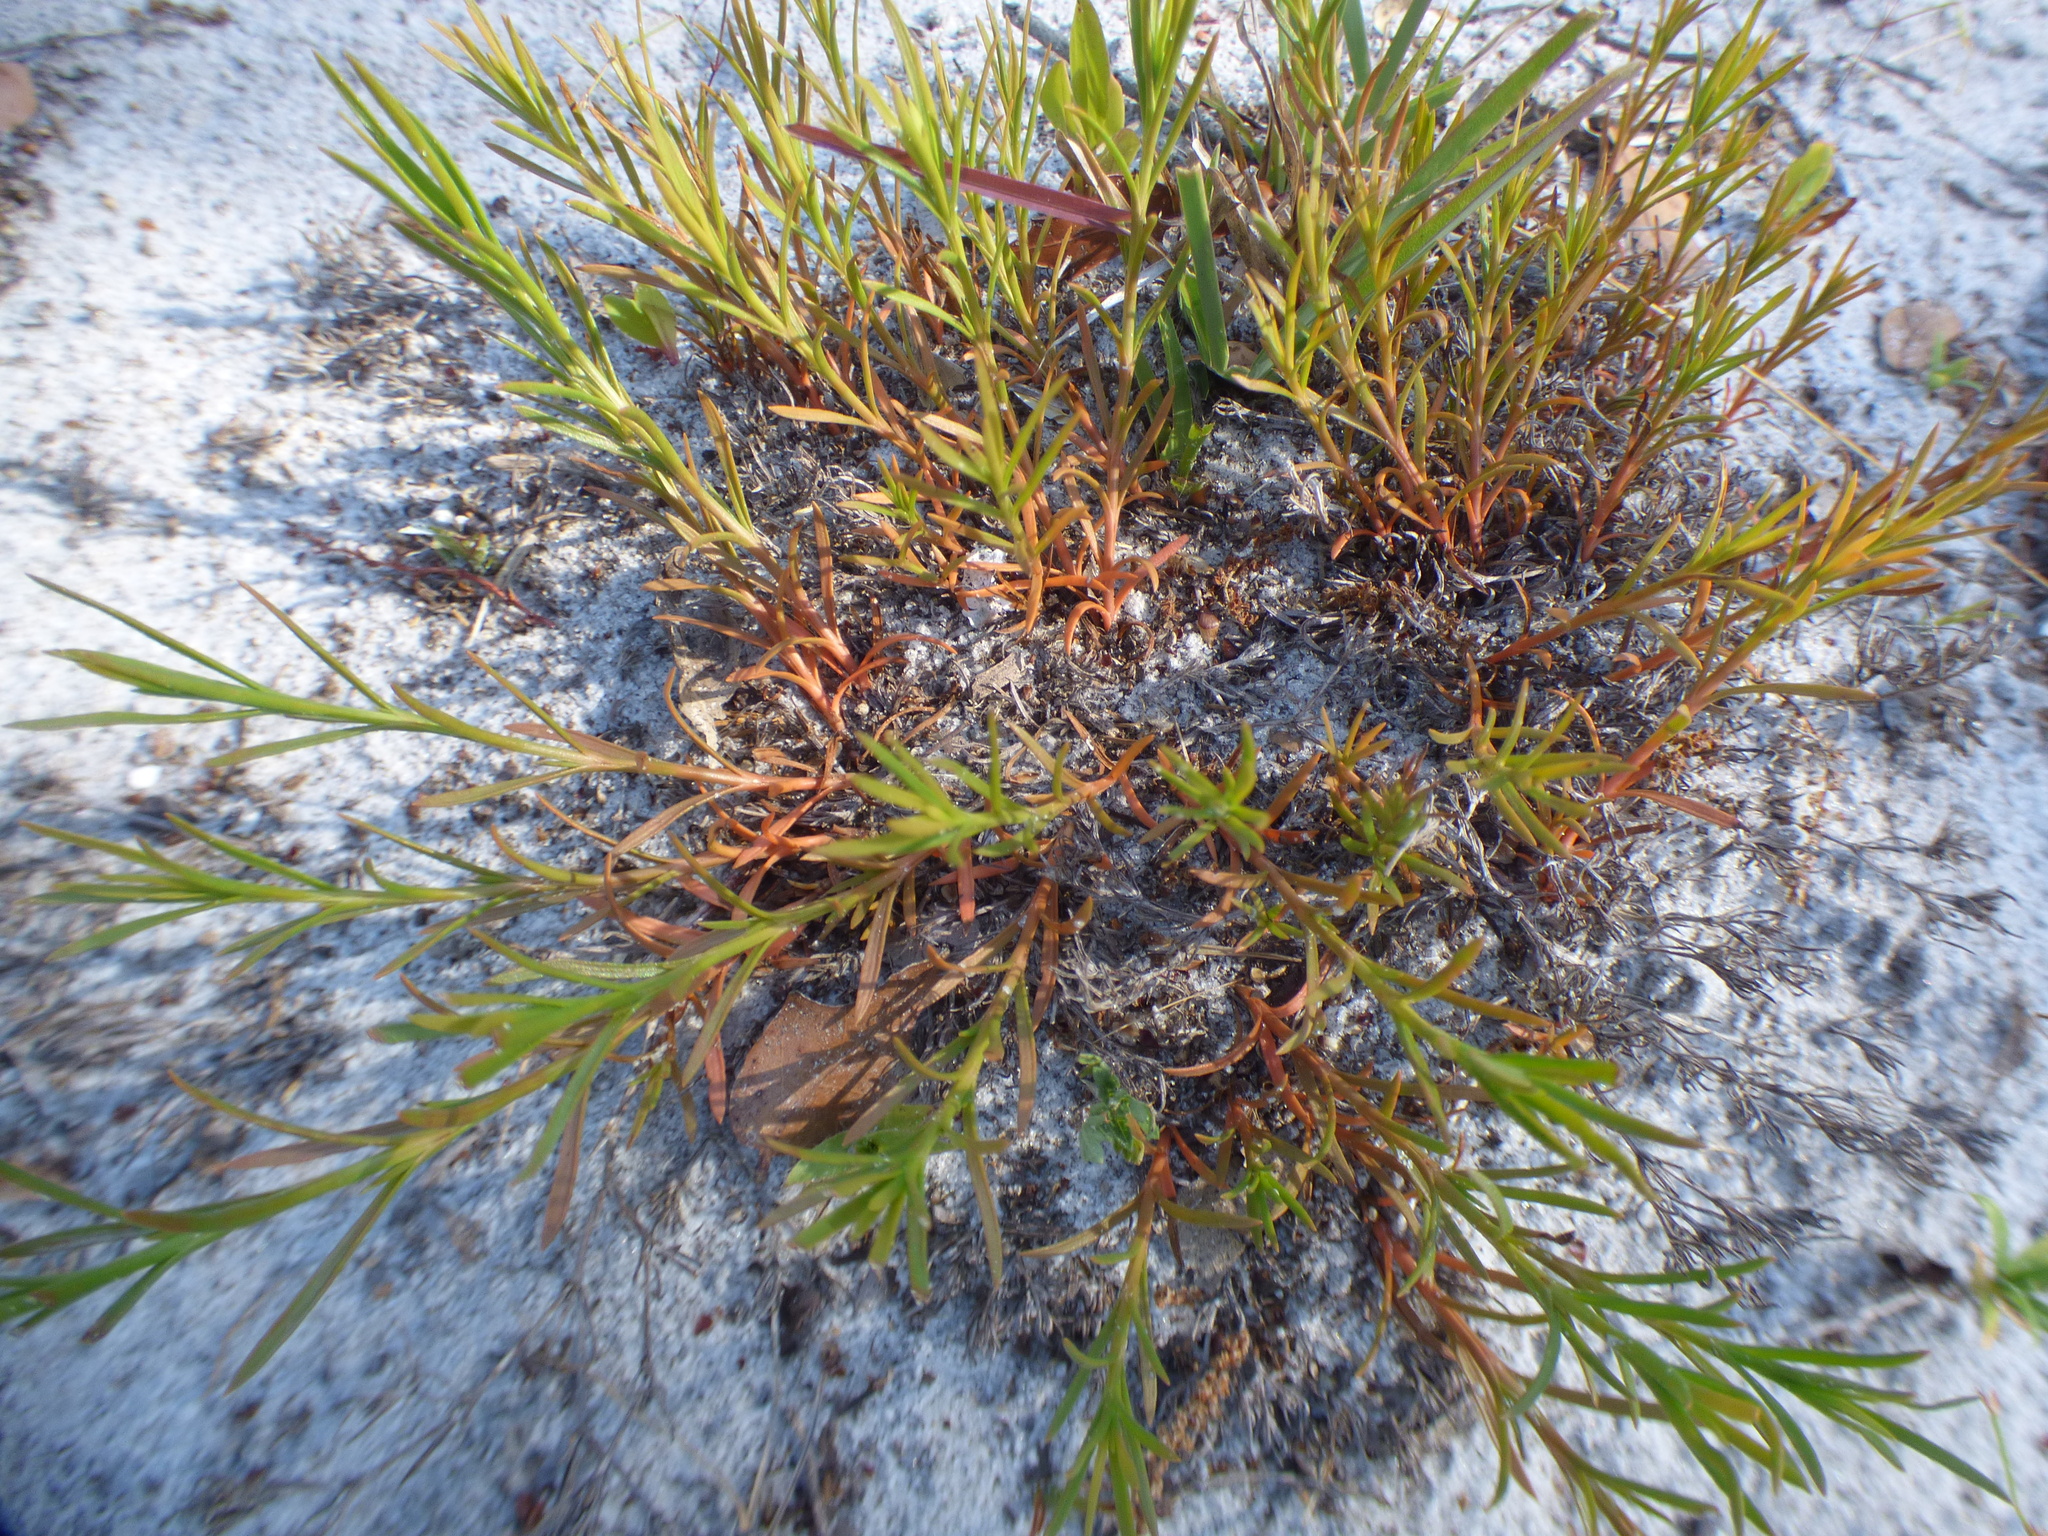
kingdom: Plantae
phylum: Tracheophyta
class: Magnoliopsida
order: Lamiales
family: Tetrachondraceae
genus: Polypremum
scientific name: Polypremum procumbens
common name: Juniper-leaf
